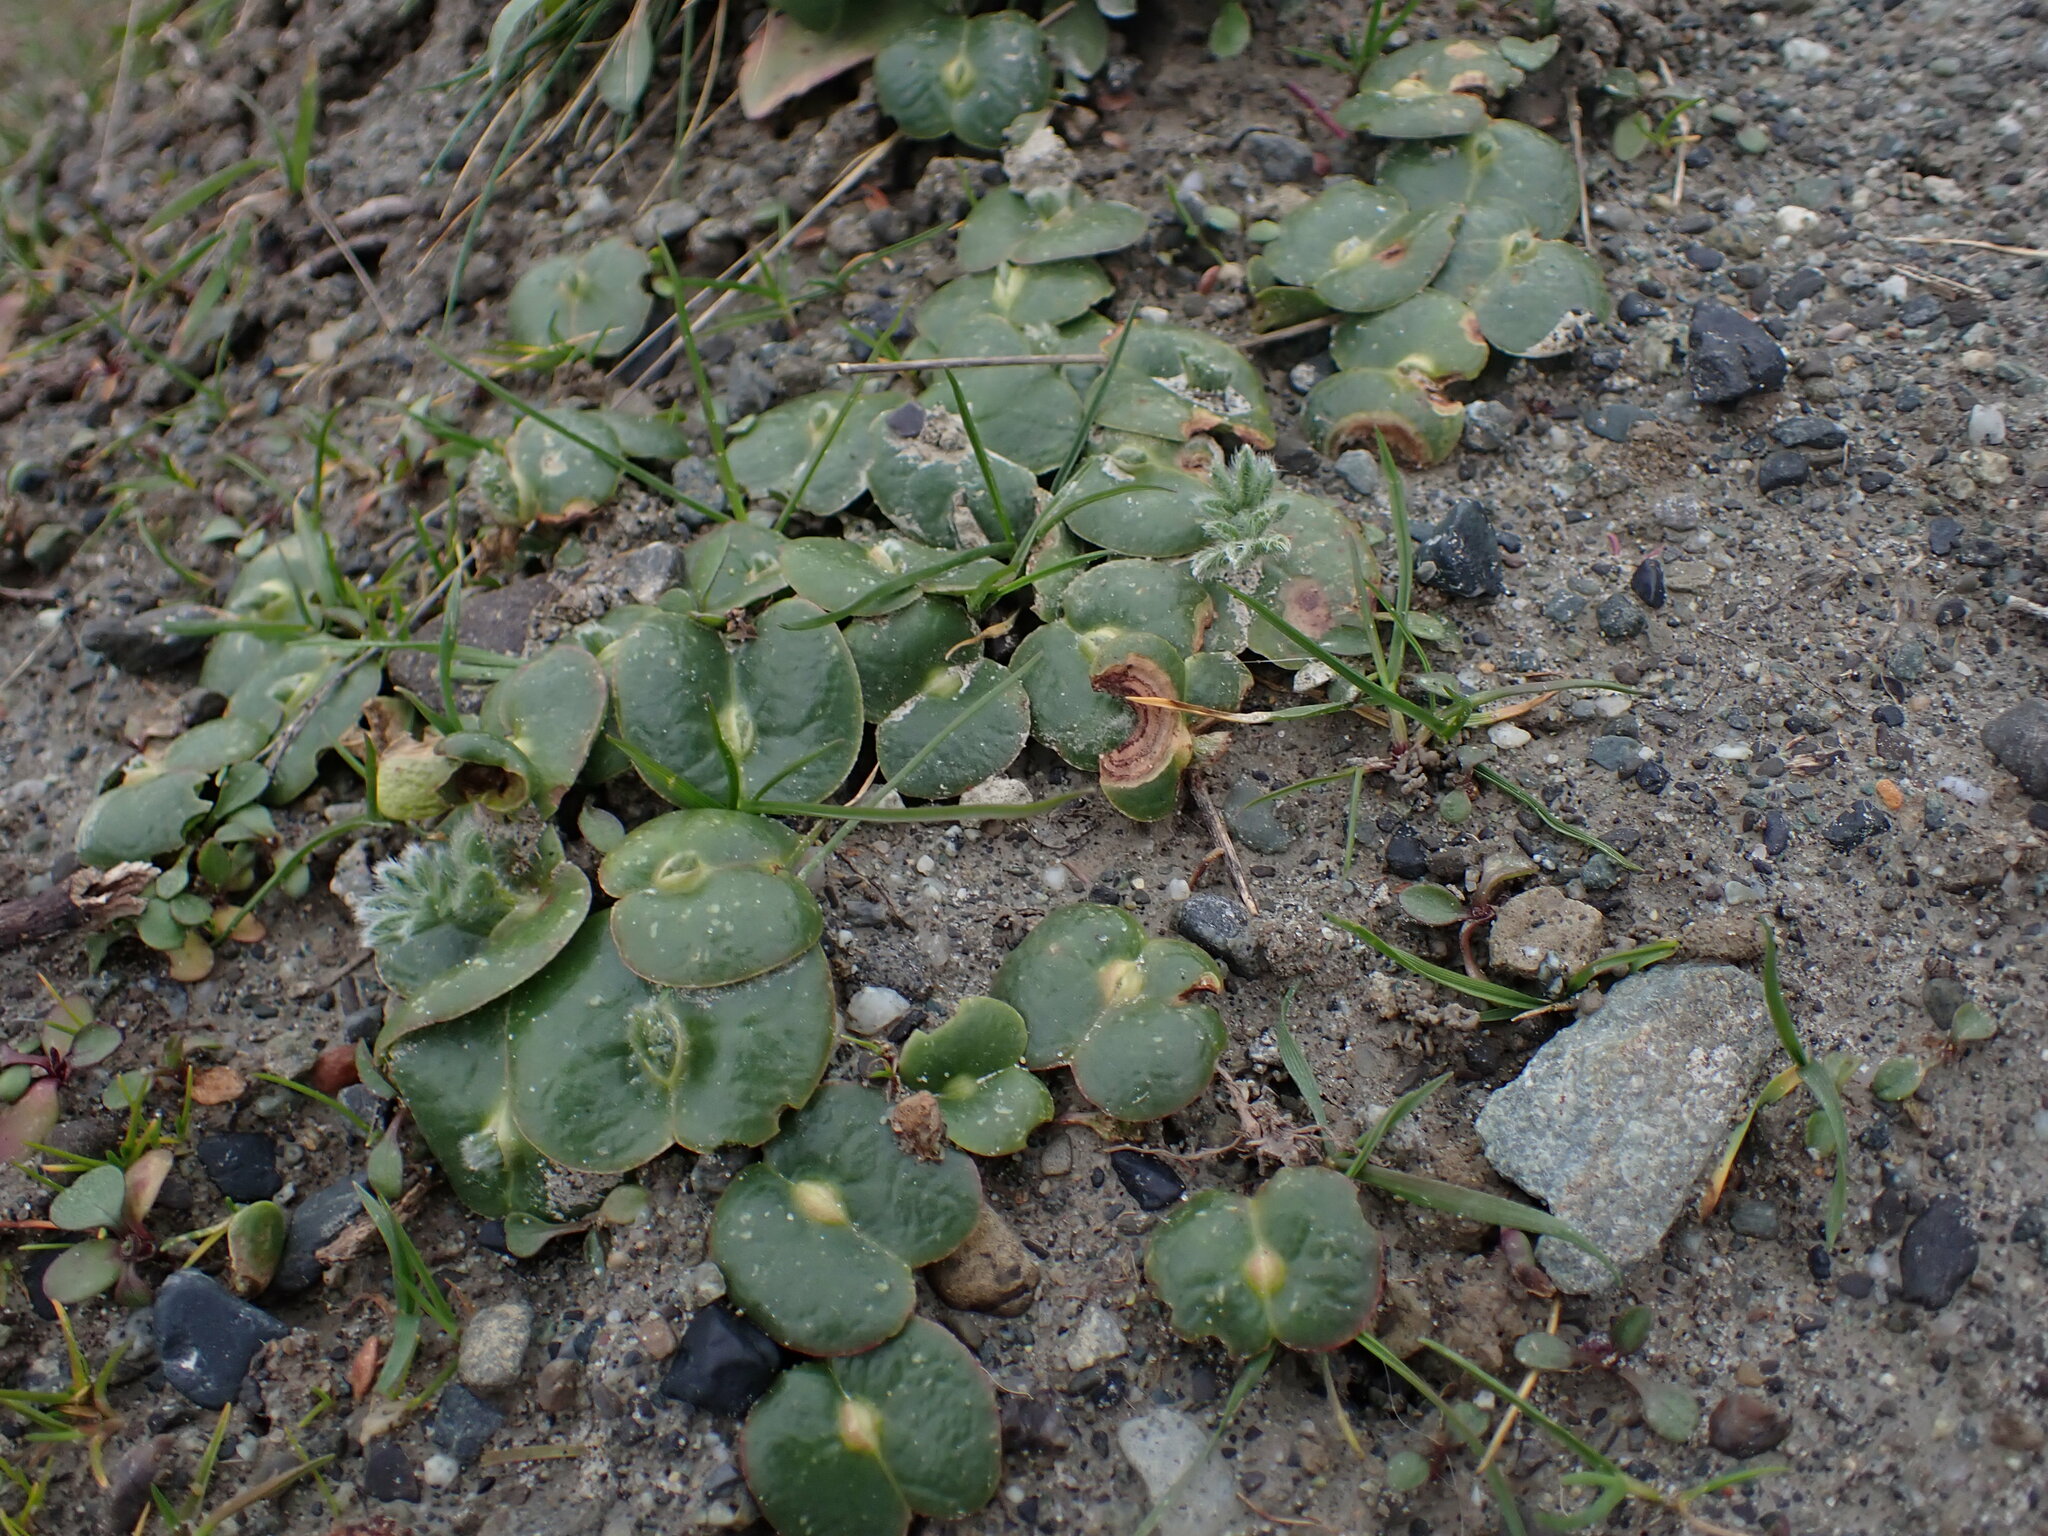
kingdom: Plantae
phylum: Tracheophyta
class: Magnoliopsida
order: Fabales
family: Fabaceae
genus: Lupinus
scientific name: Lupinus densiflorus
